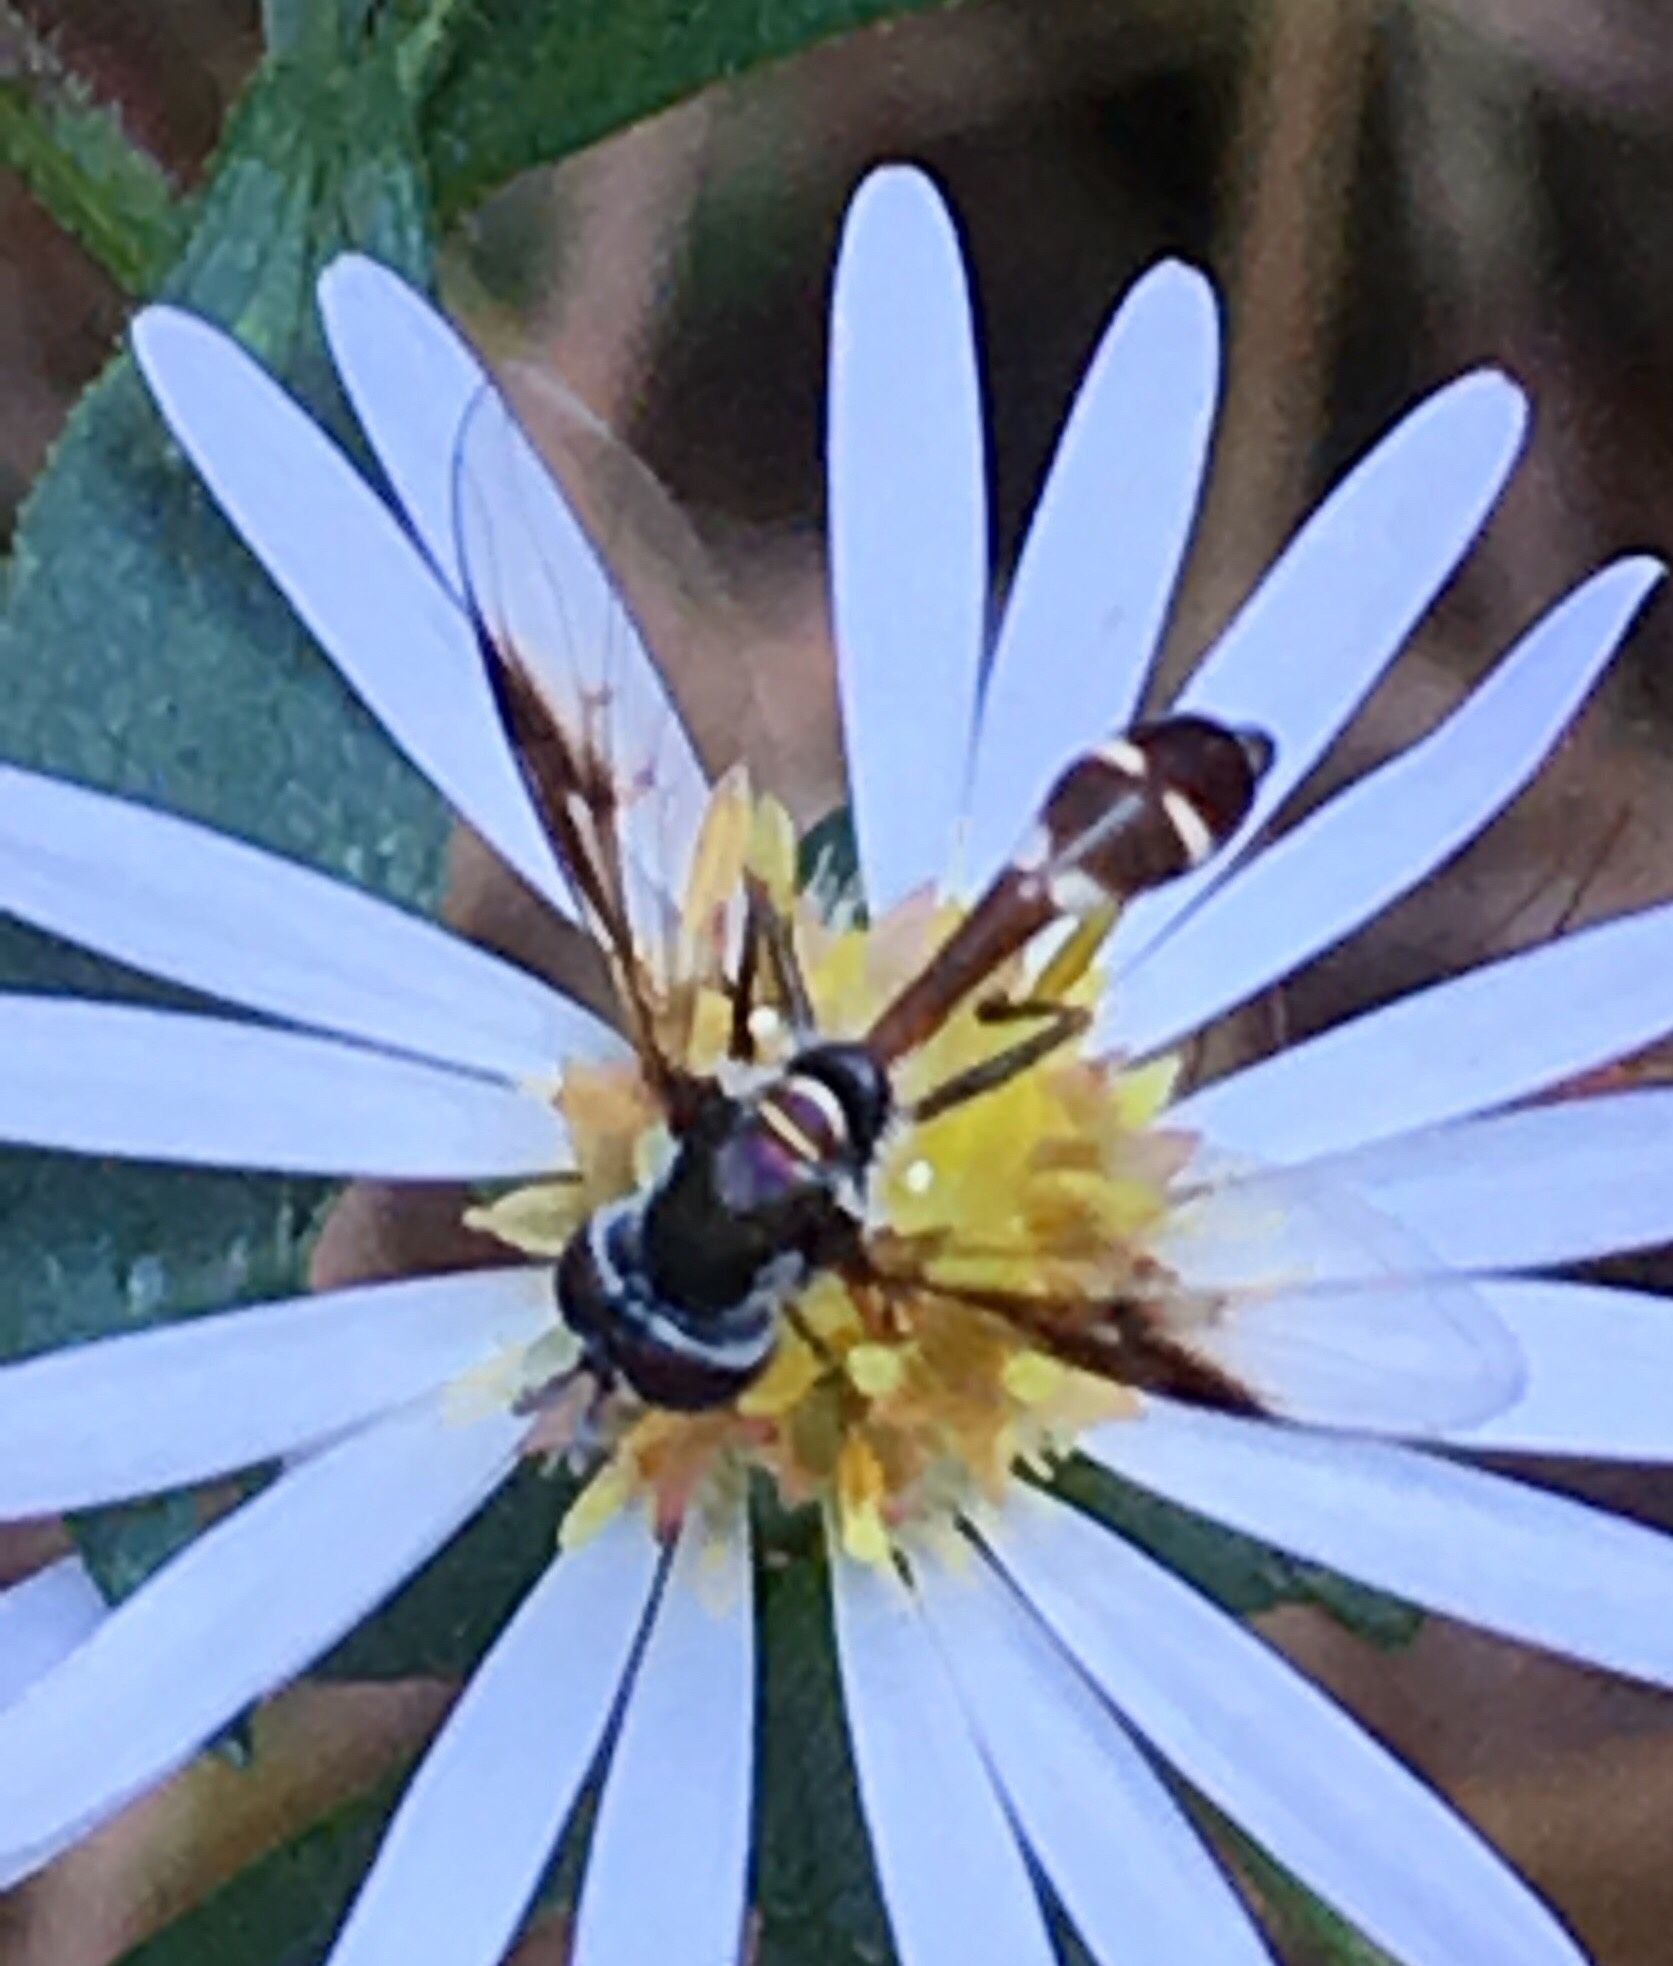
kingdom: Animalia
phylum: Arthropoda
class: Insecta
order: Diptera
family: Syrphidae
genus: Dioprosopa
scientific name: Dioprosopa clavatus
